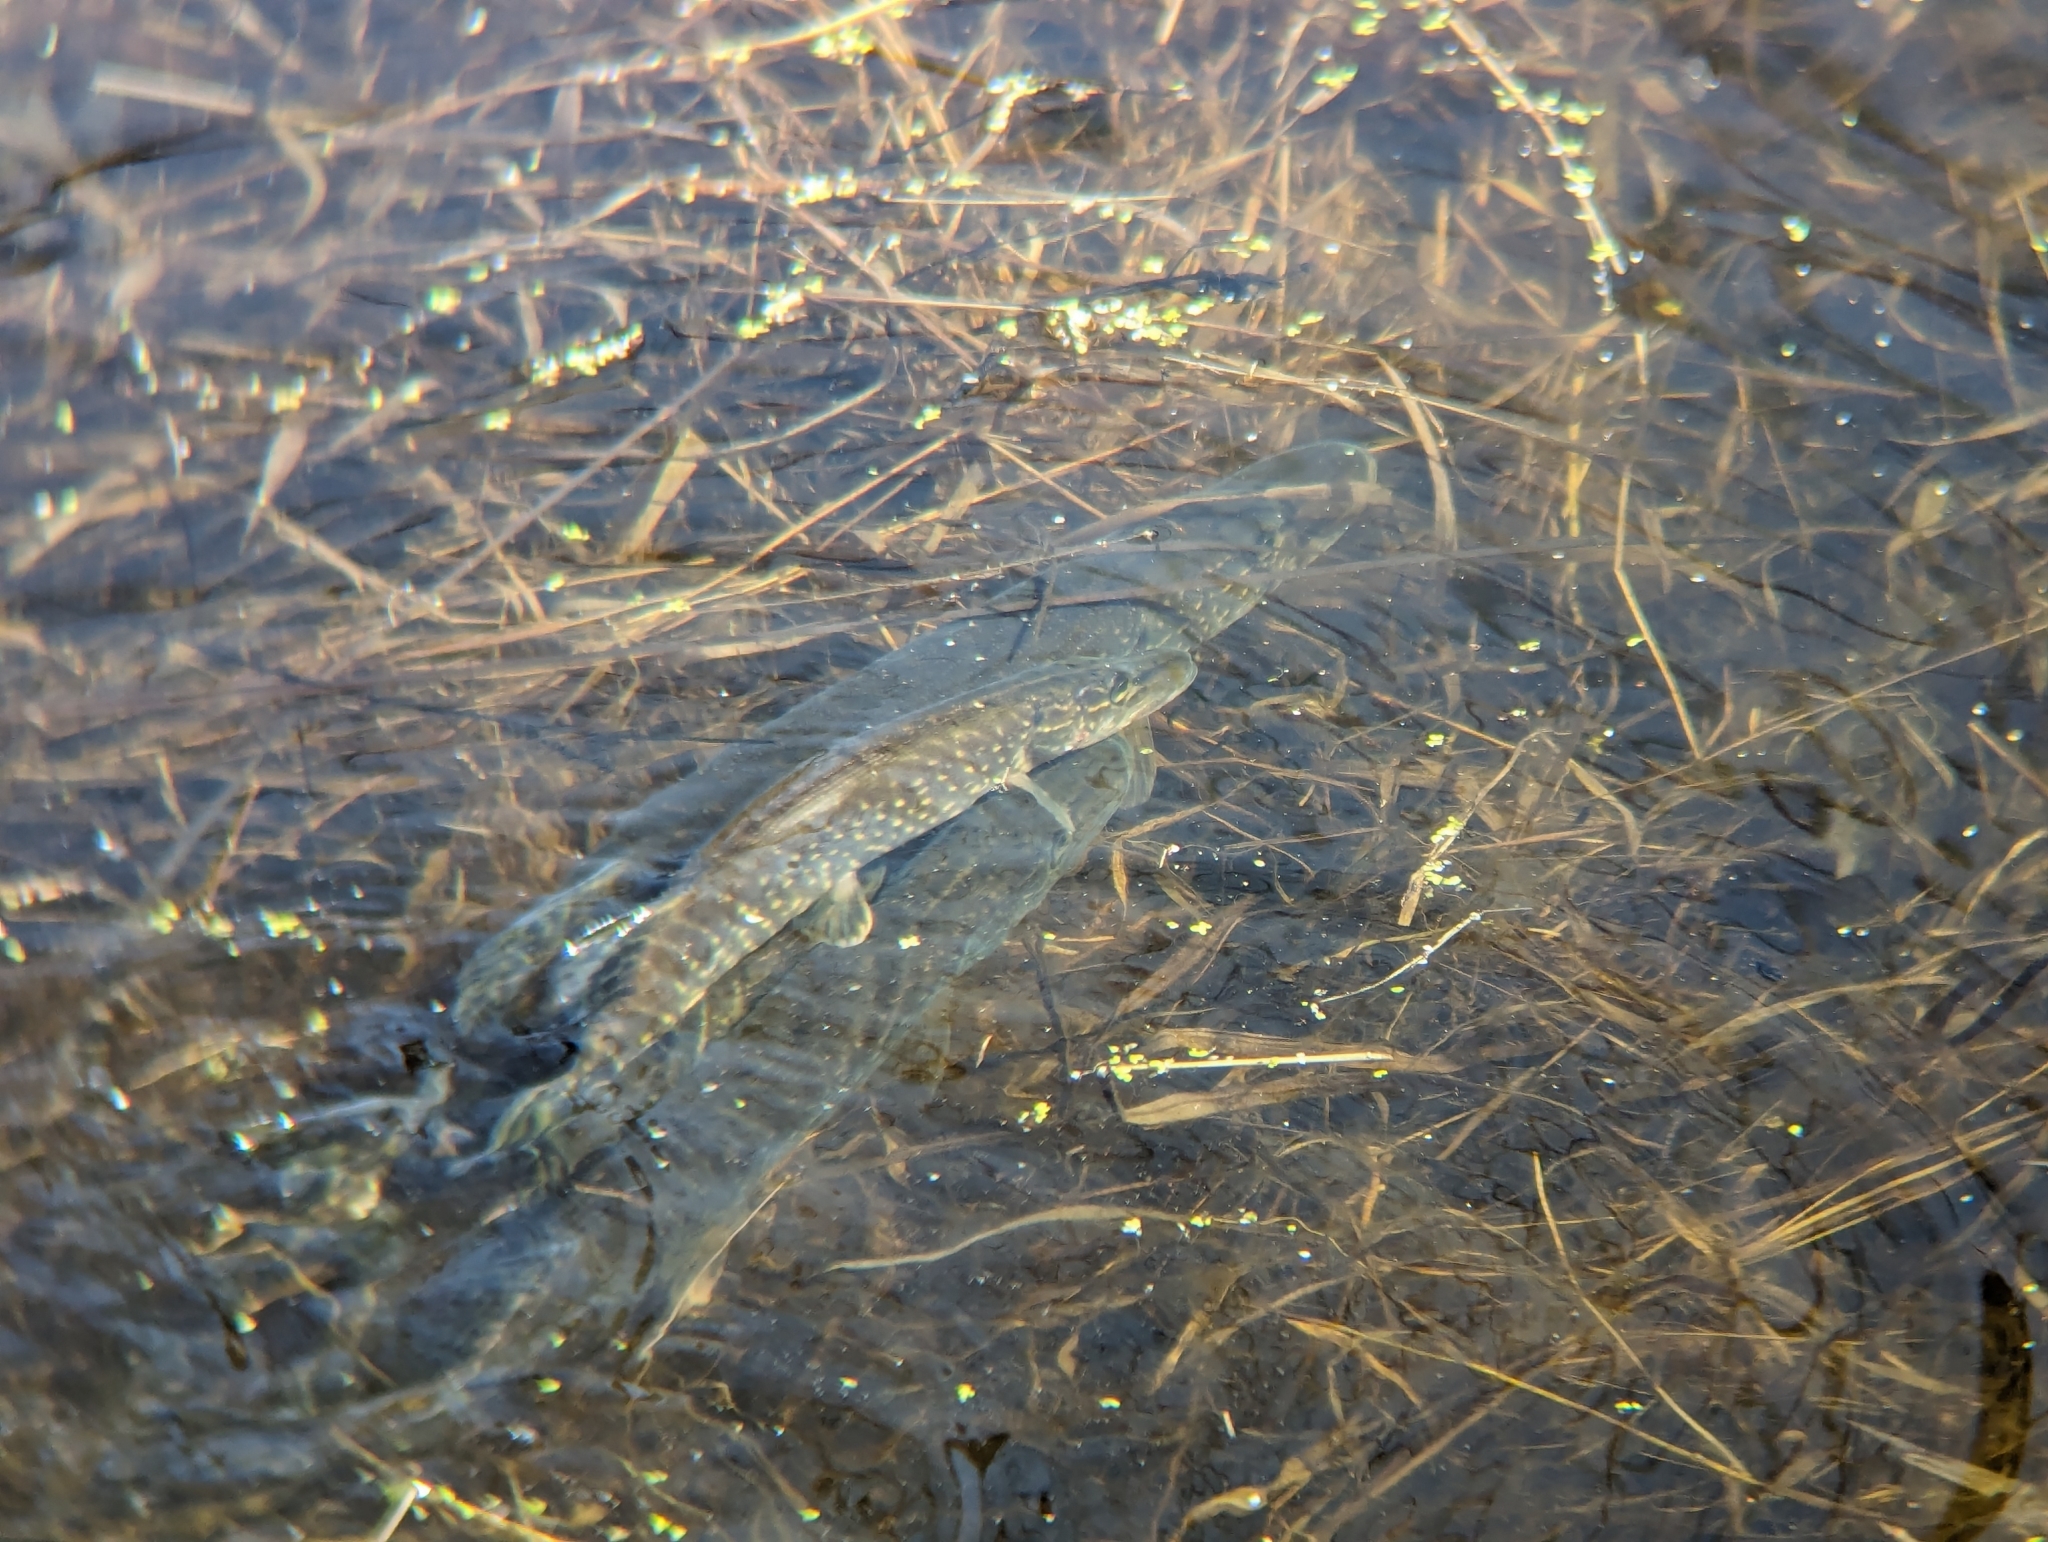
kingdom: Animalia
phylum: Chordata
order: Esociformes
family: Esocidae
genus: Esox
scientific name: Esox lucius
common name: Northern pike
